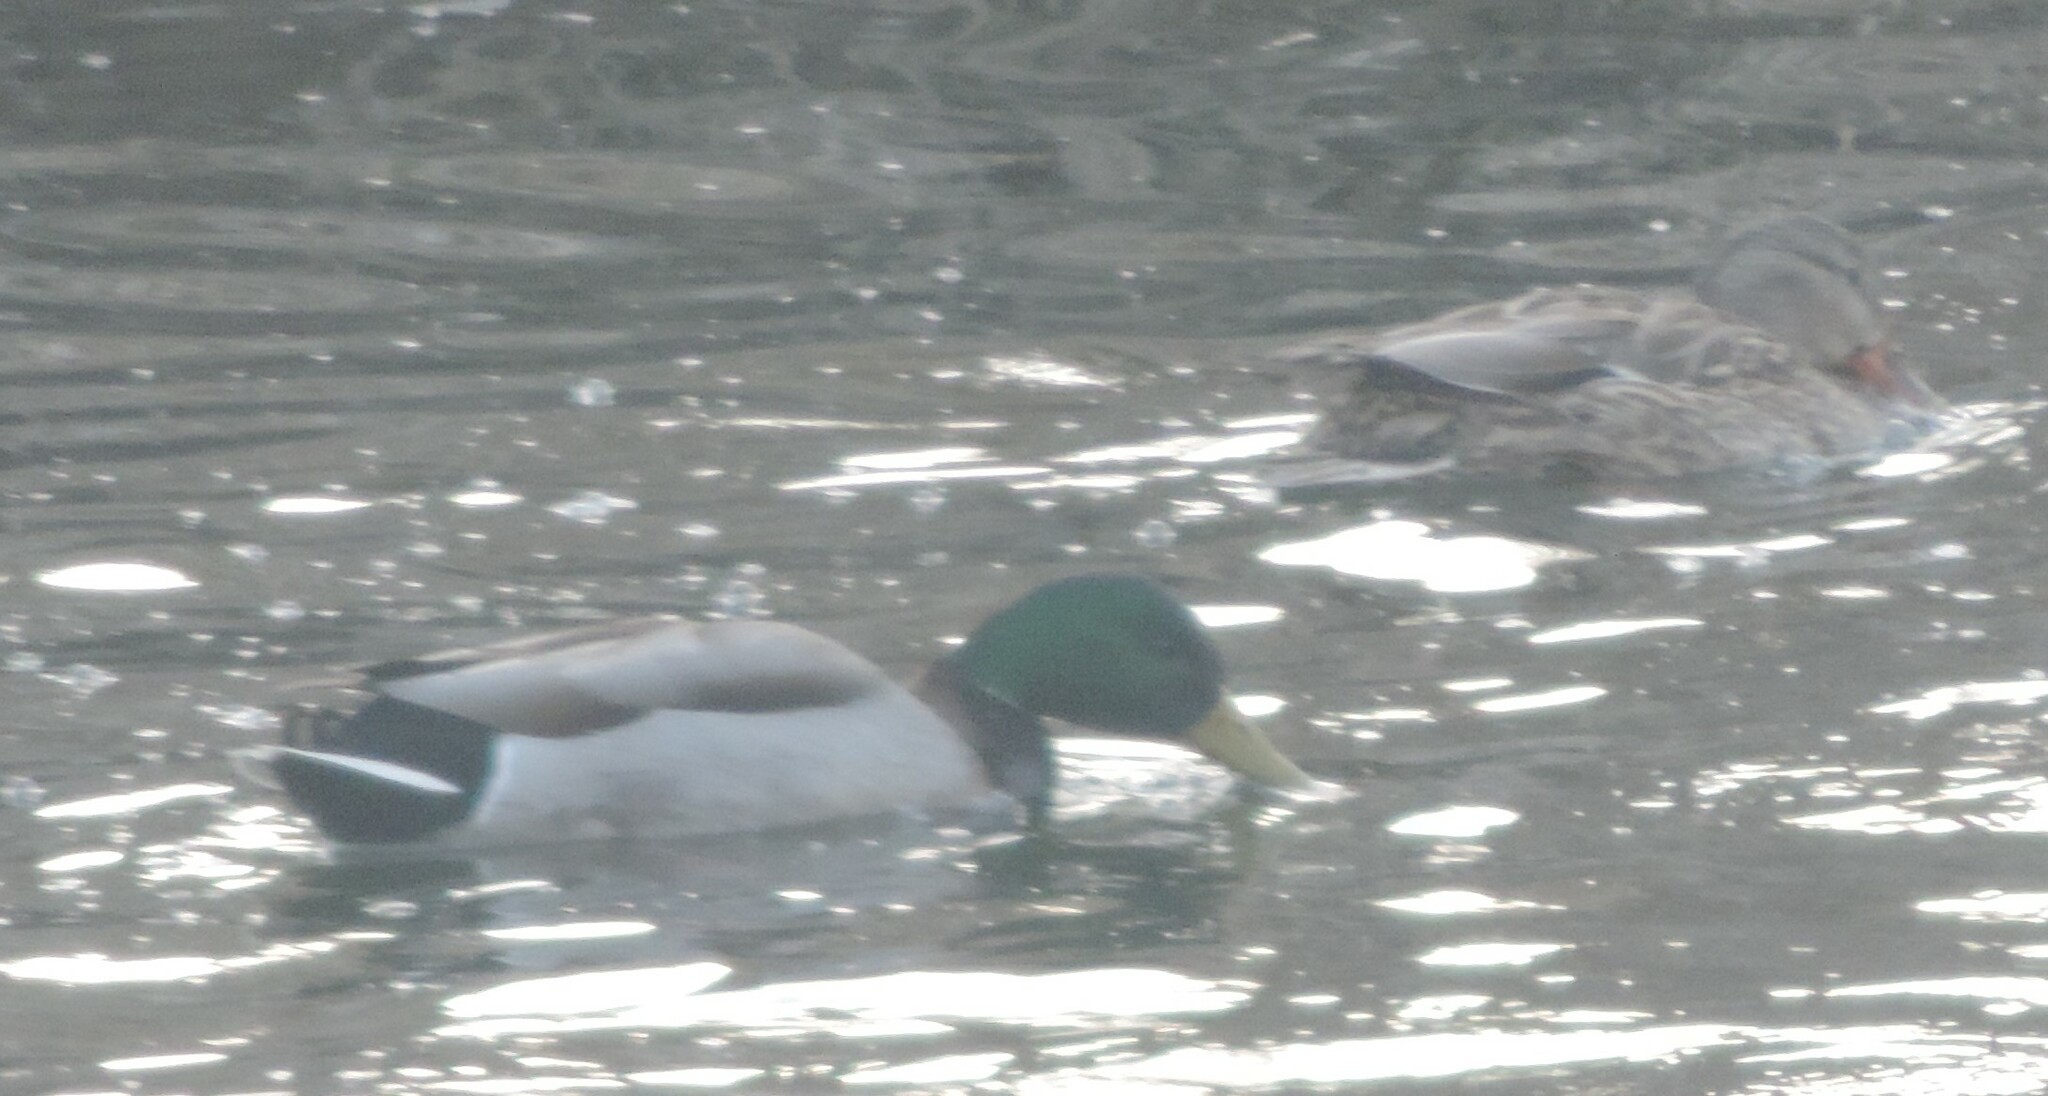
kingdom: Animalia
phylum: Chordata
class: Aves
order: Anseriformes
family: Anatidae
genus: Anas
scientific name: Anas platyrhynchos
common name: Mallard
